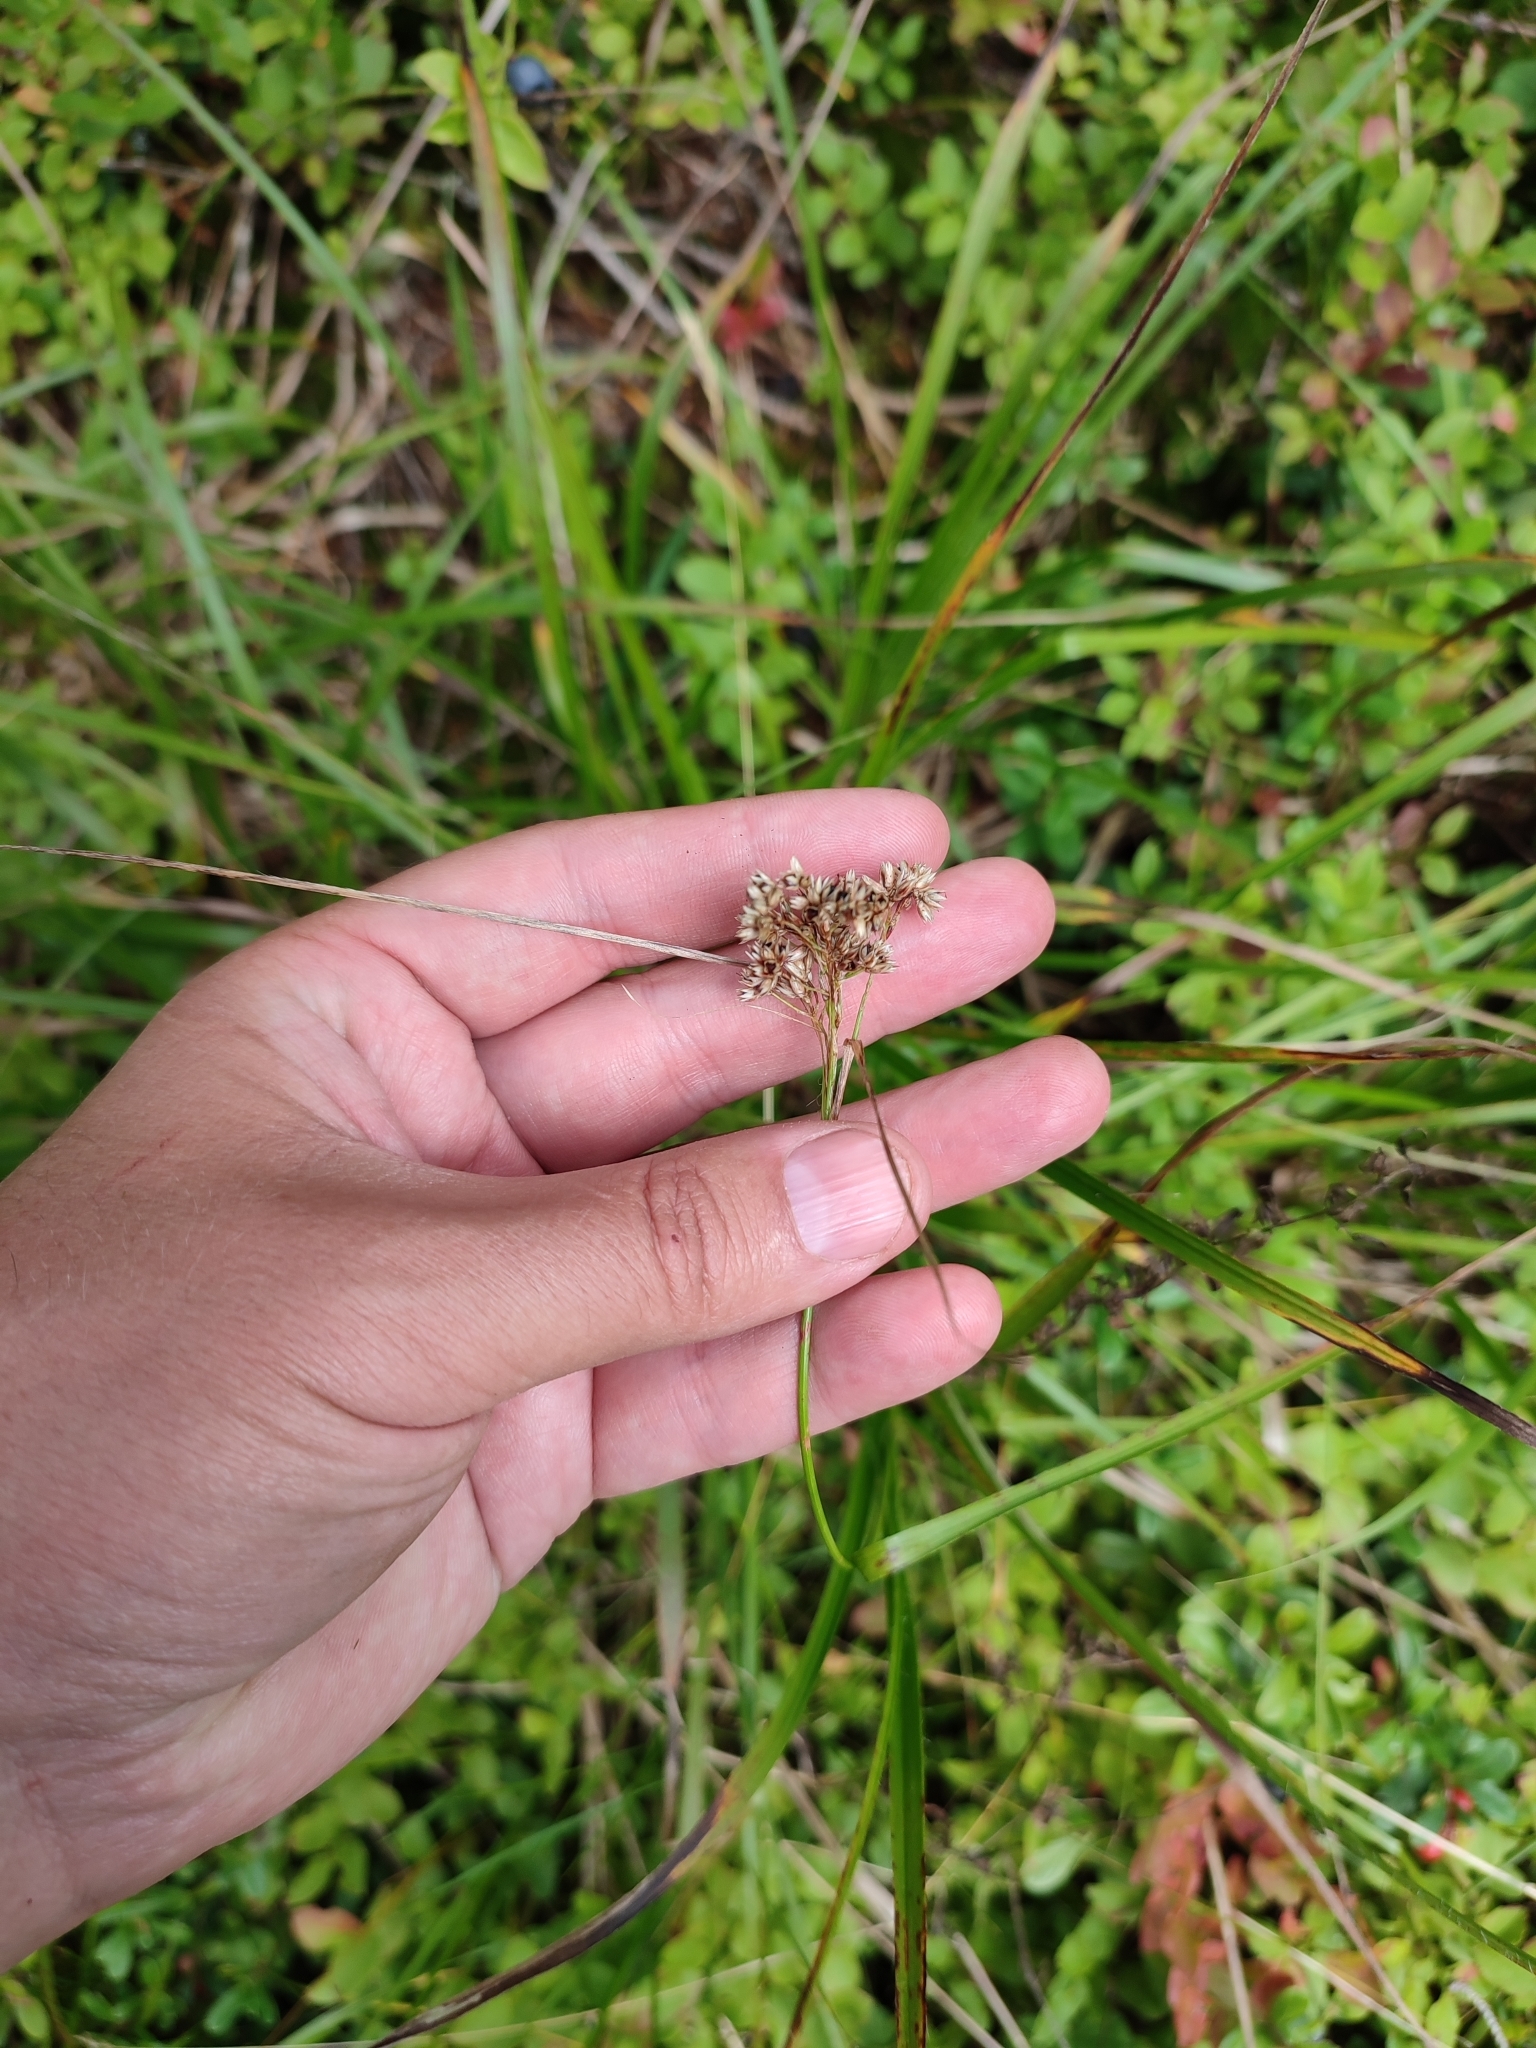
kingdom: Plantae
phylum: Tracheophyta
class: Liliopsida
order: Poales
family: Juncaceae
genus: Luzula
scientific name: Luzula luzuloides
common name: White wood-rush
